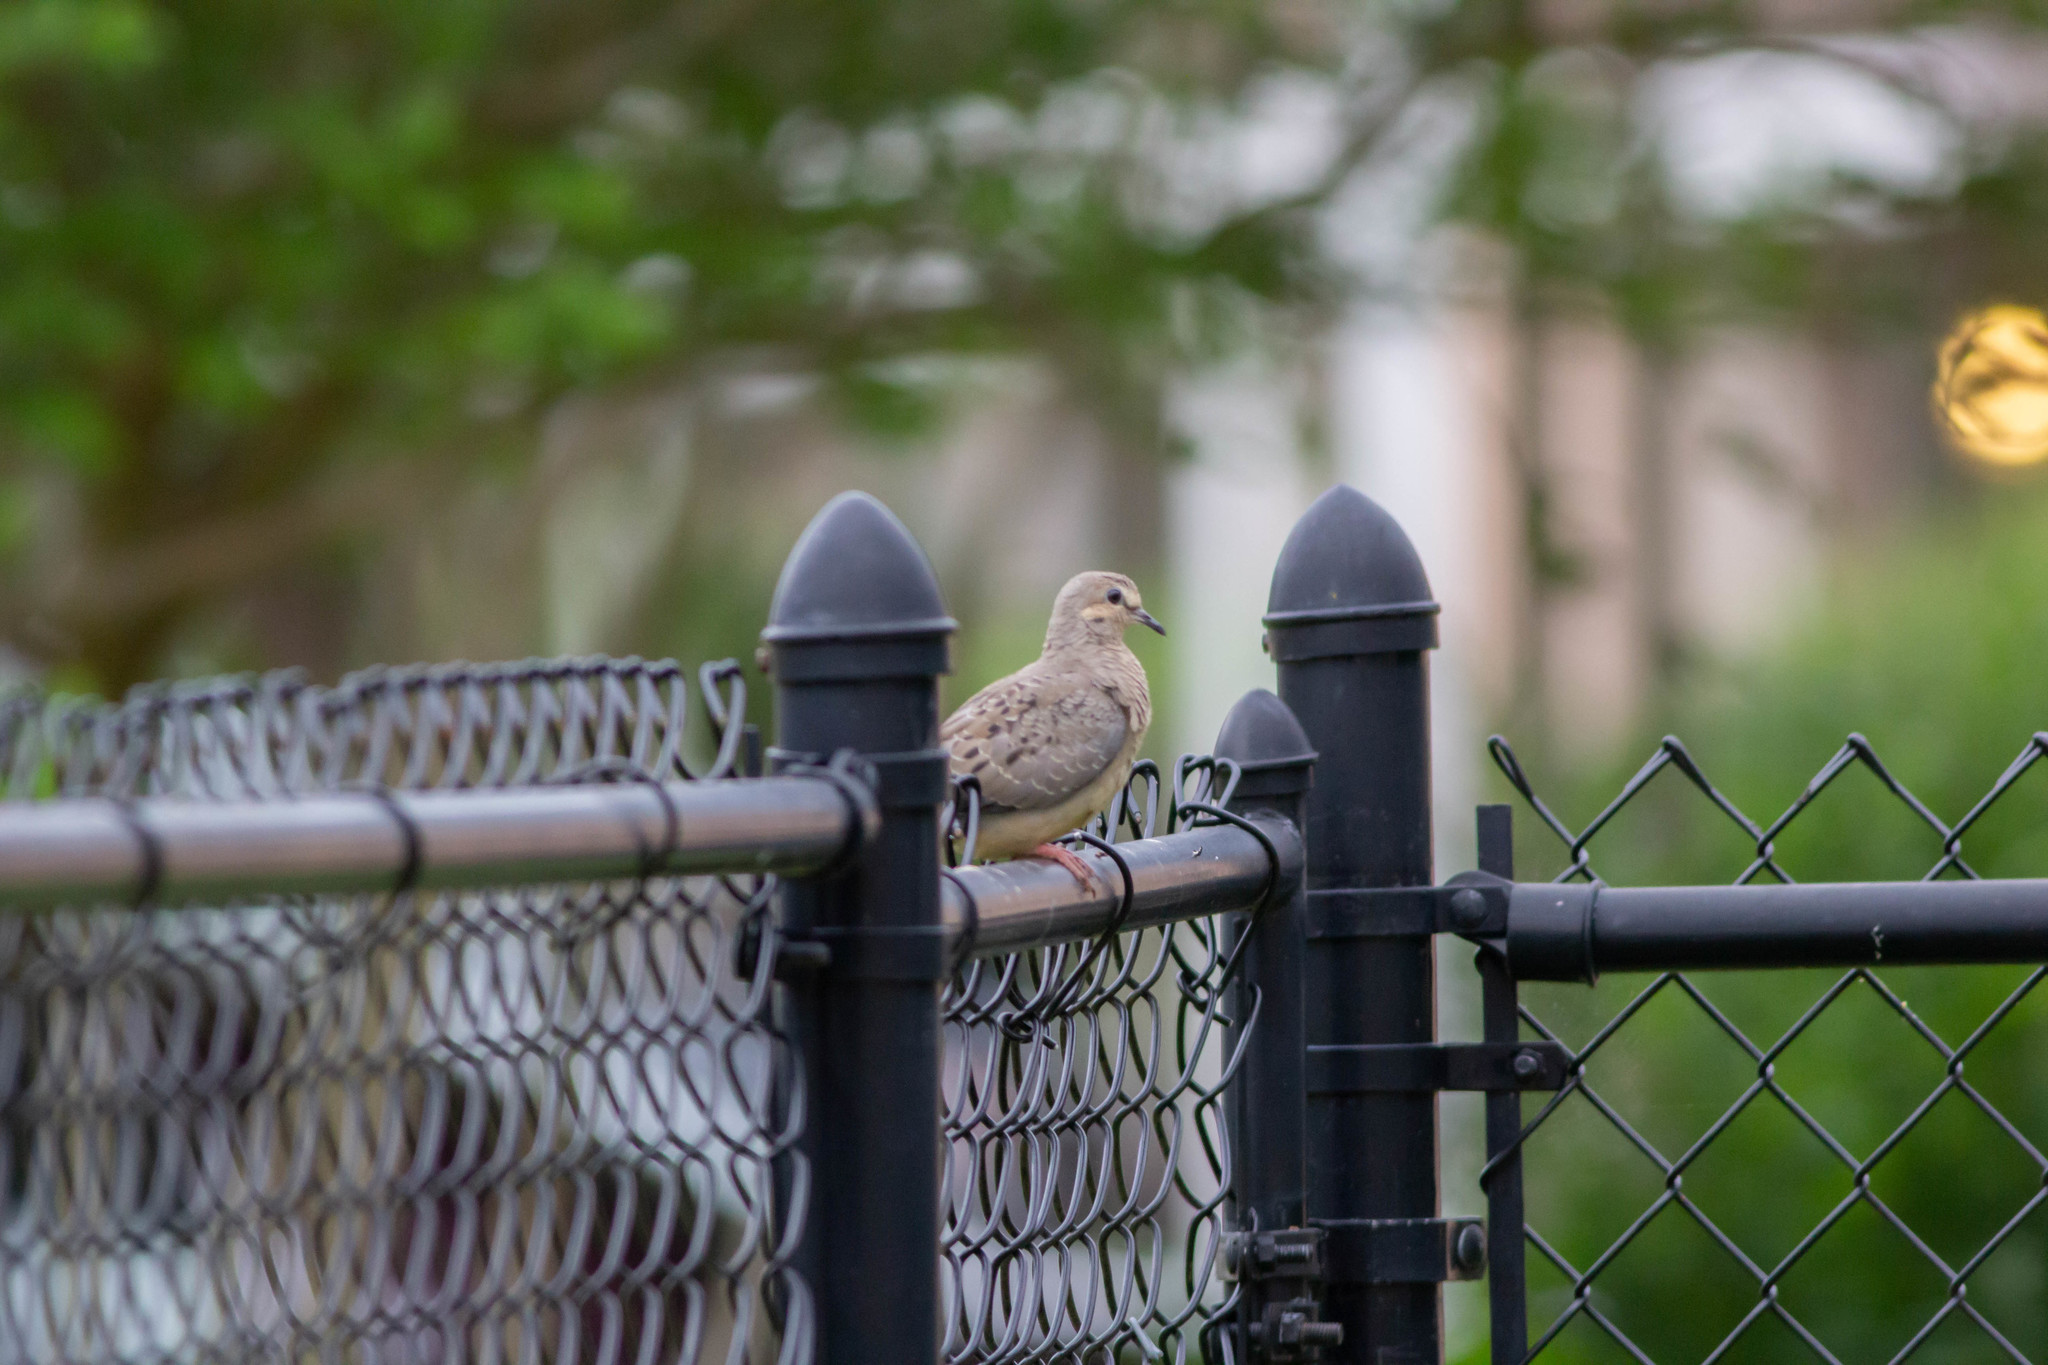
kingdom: Animalia
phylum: Chordata
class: Aves
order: Columbiformes
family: Columbidae
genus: Zenaida
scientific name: Zenaida macroura
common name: Mourning dove
